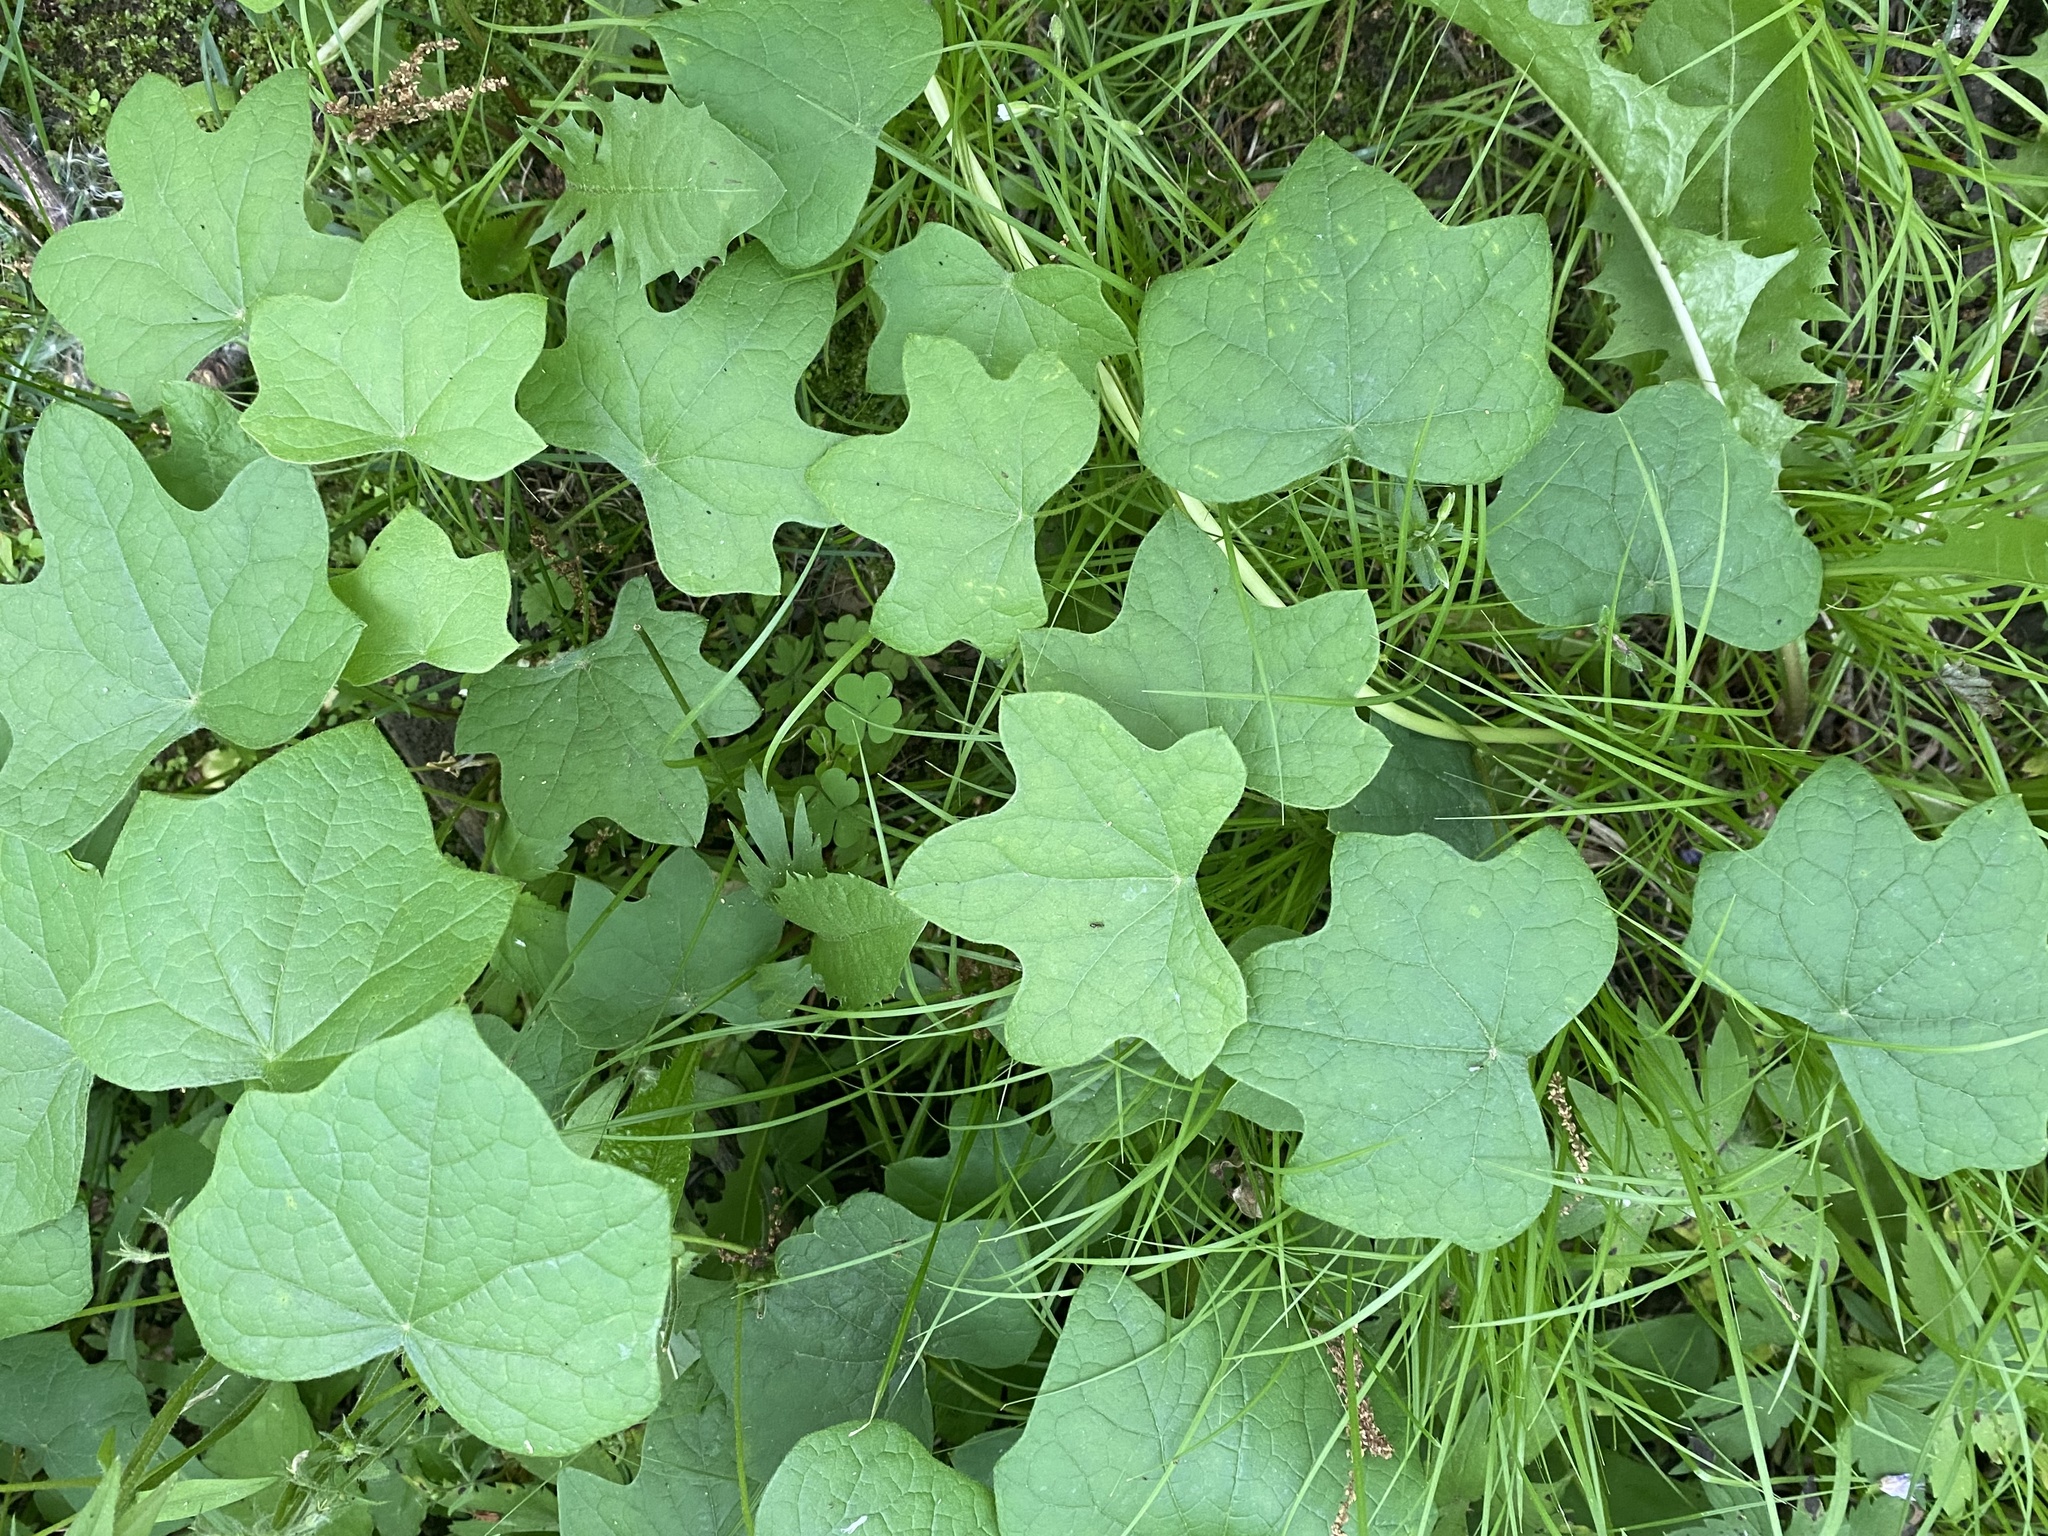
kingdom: Plantae
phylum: Tracheophyta
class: Magnoliopsida
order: Ranunculales
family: Menispermaceae
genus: Menispermum
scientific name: Menispermum canadense
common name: Moonseed
